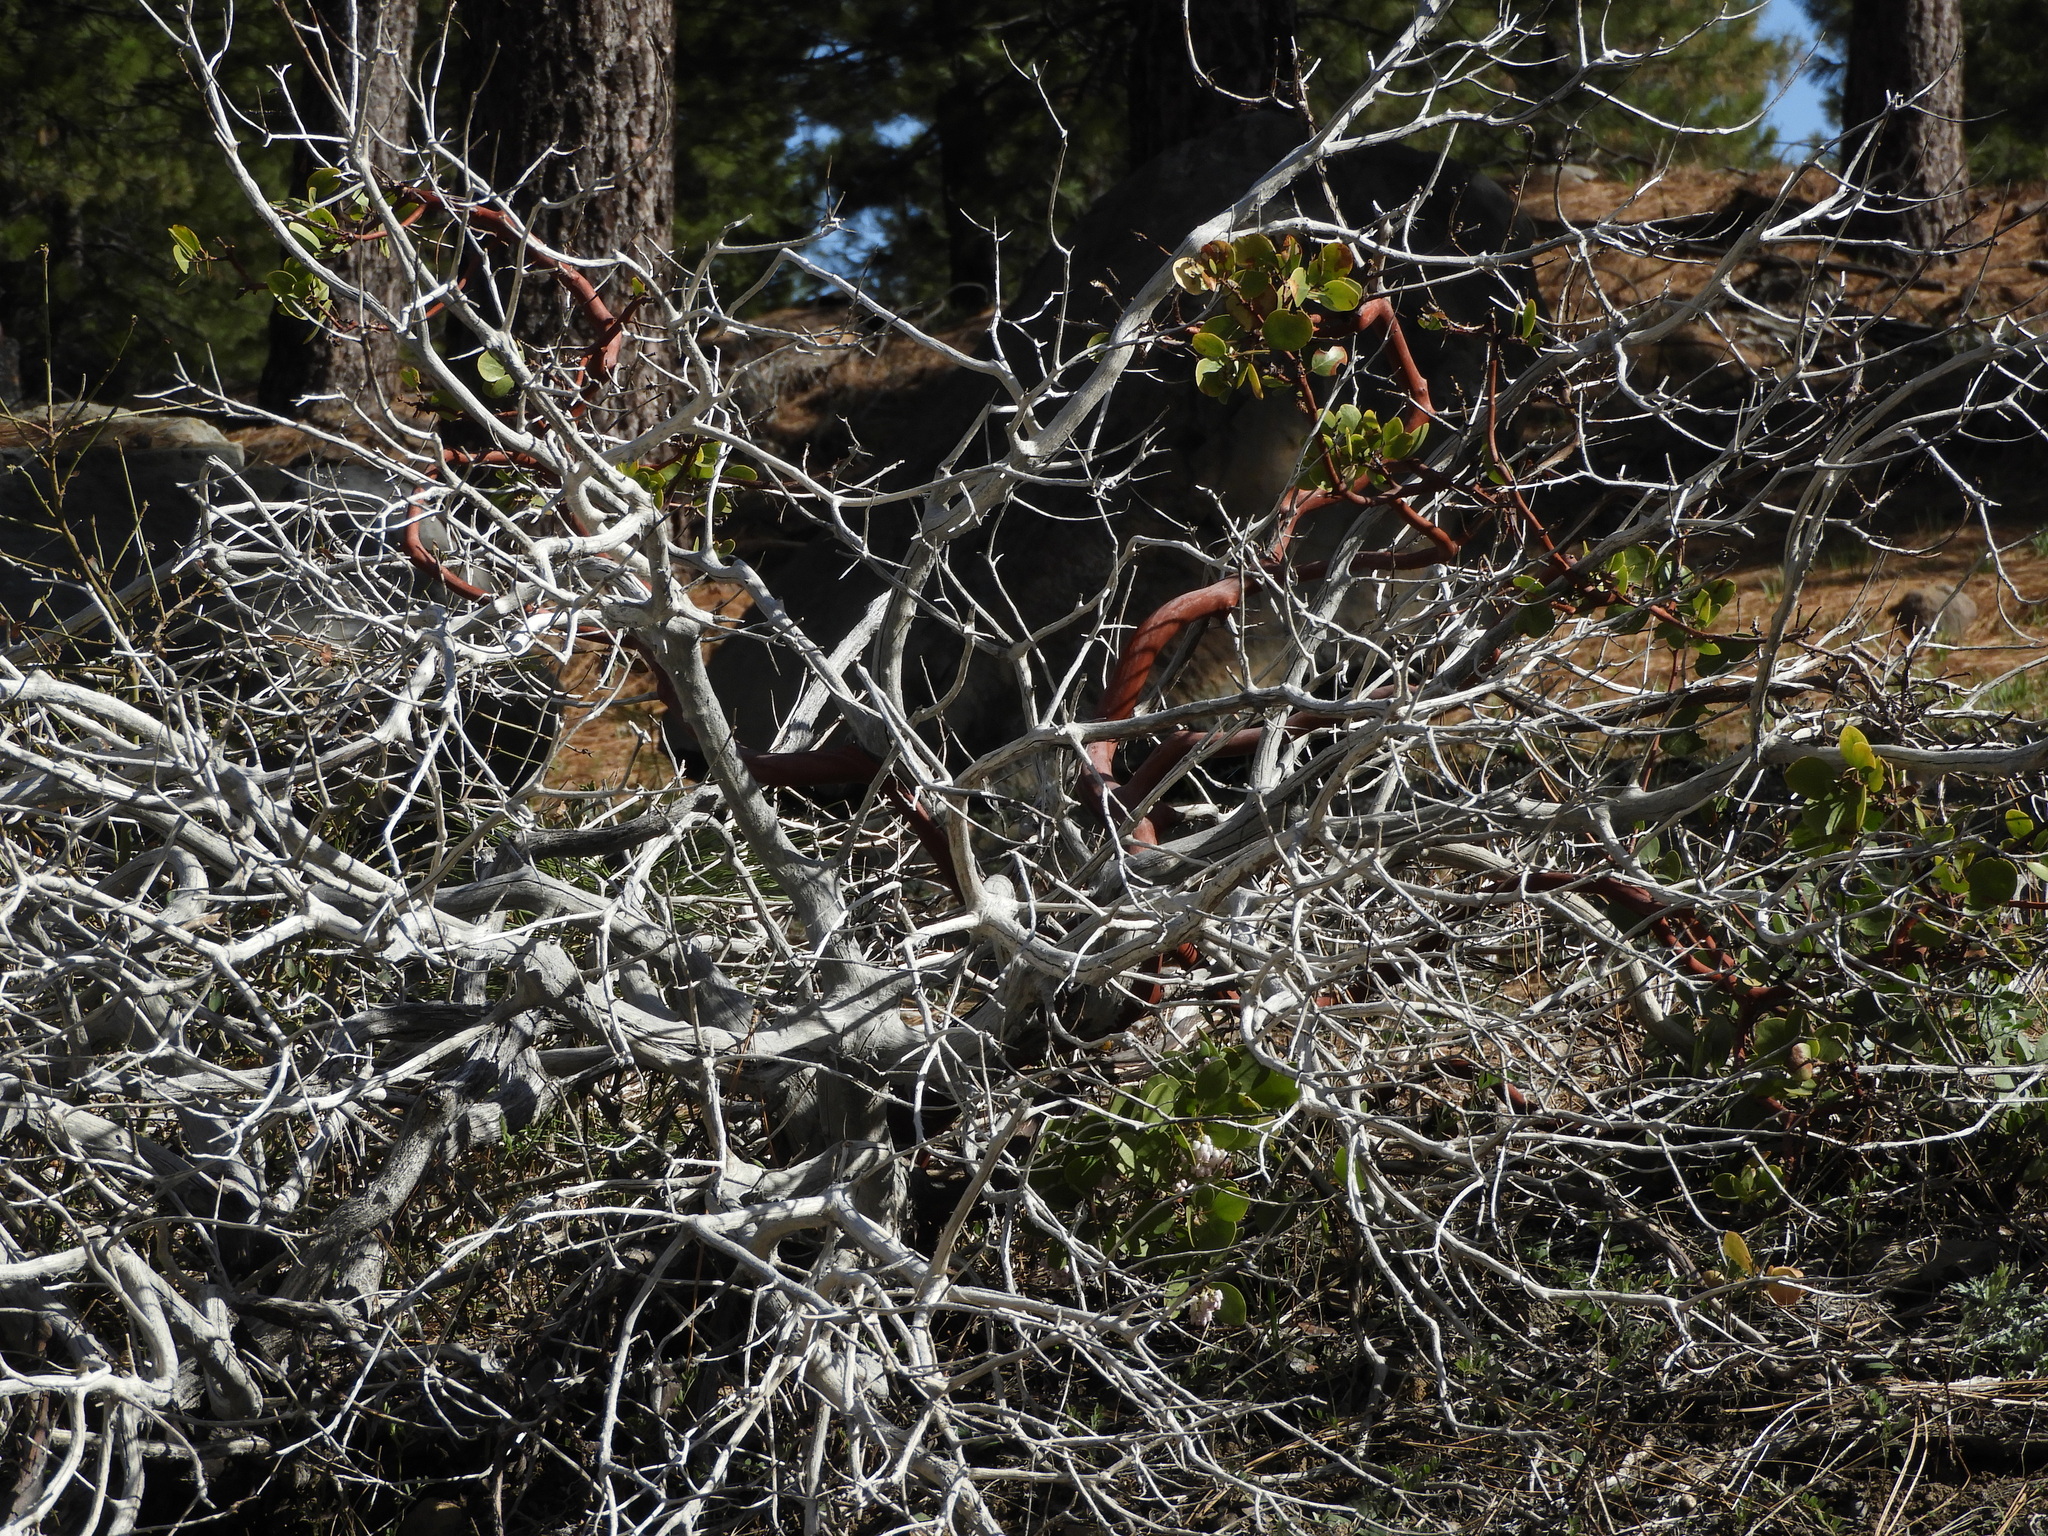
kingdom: Plantae
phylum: Tracheophyta
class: Magnoliopsida
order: Ericales
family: Ericaceae
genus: Arctostaphylos
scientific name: Arctostaphylos patula
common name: Green-leaf manzanita
